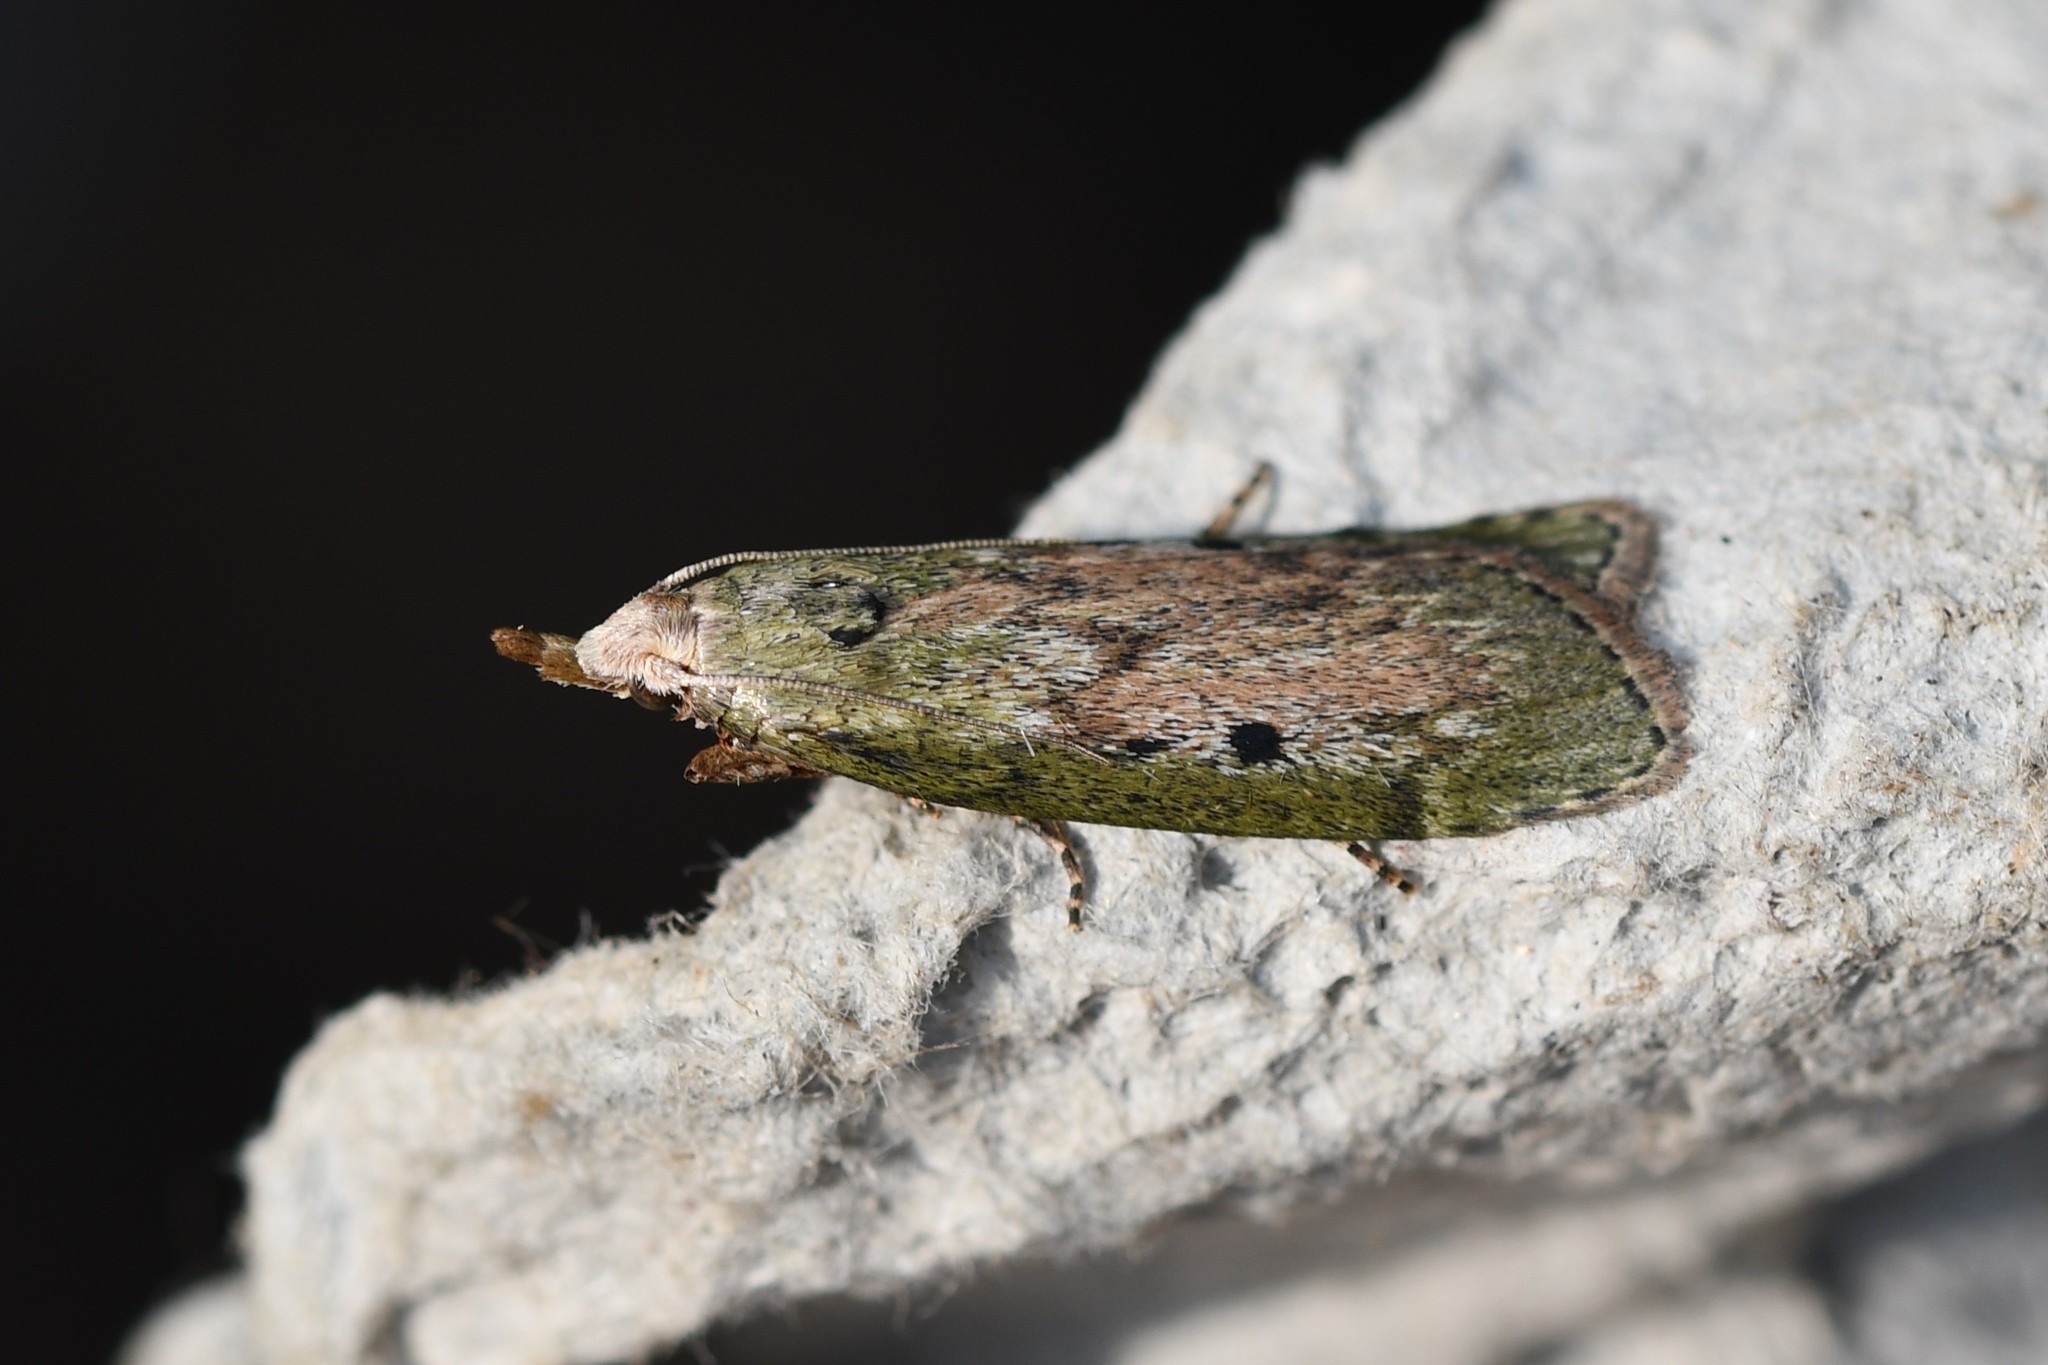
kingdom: Animalia
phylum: Arthropoda
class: Insecta
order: Lepidoptera
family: Pyralidae
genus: Aphomia
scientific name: Aphomia sociella
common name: Bee moth
